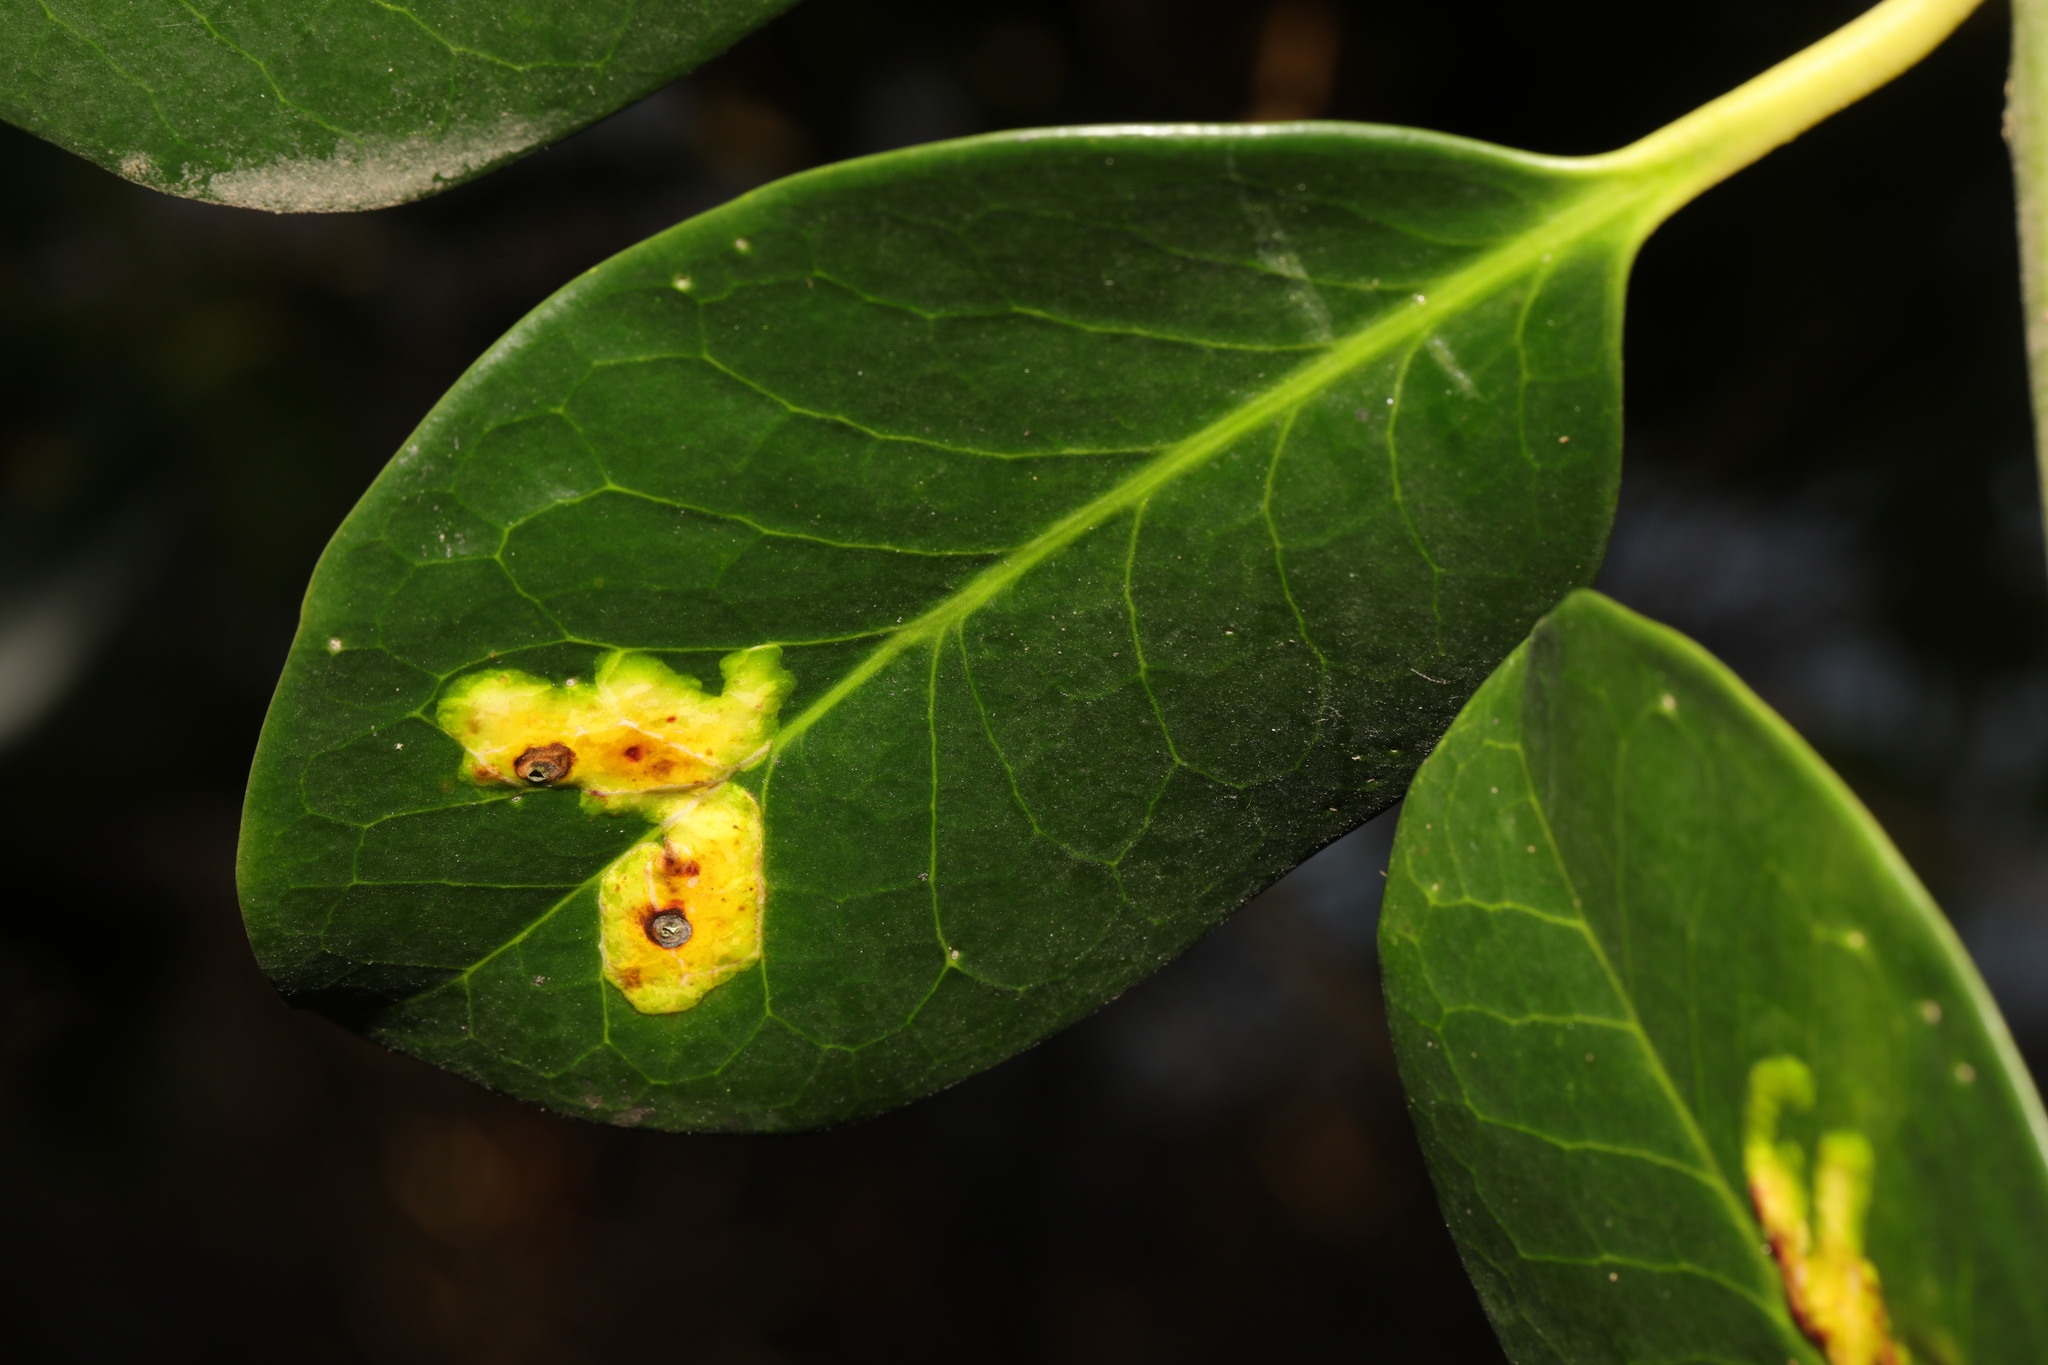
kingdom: Animalia
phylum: Arthropoda
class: Insecta
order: Diptera
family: Agromyzidae
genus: Phytomyza
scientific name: Phytomyza ilicis
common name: Holly leafminer
